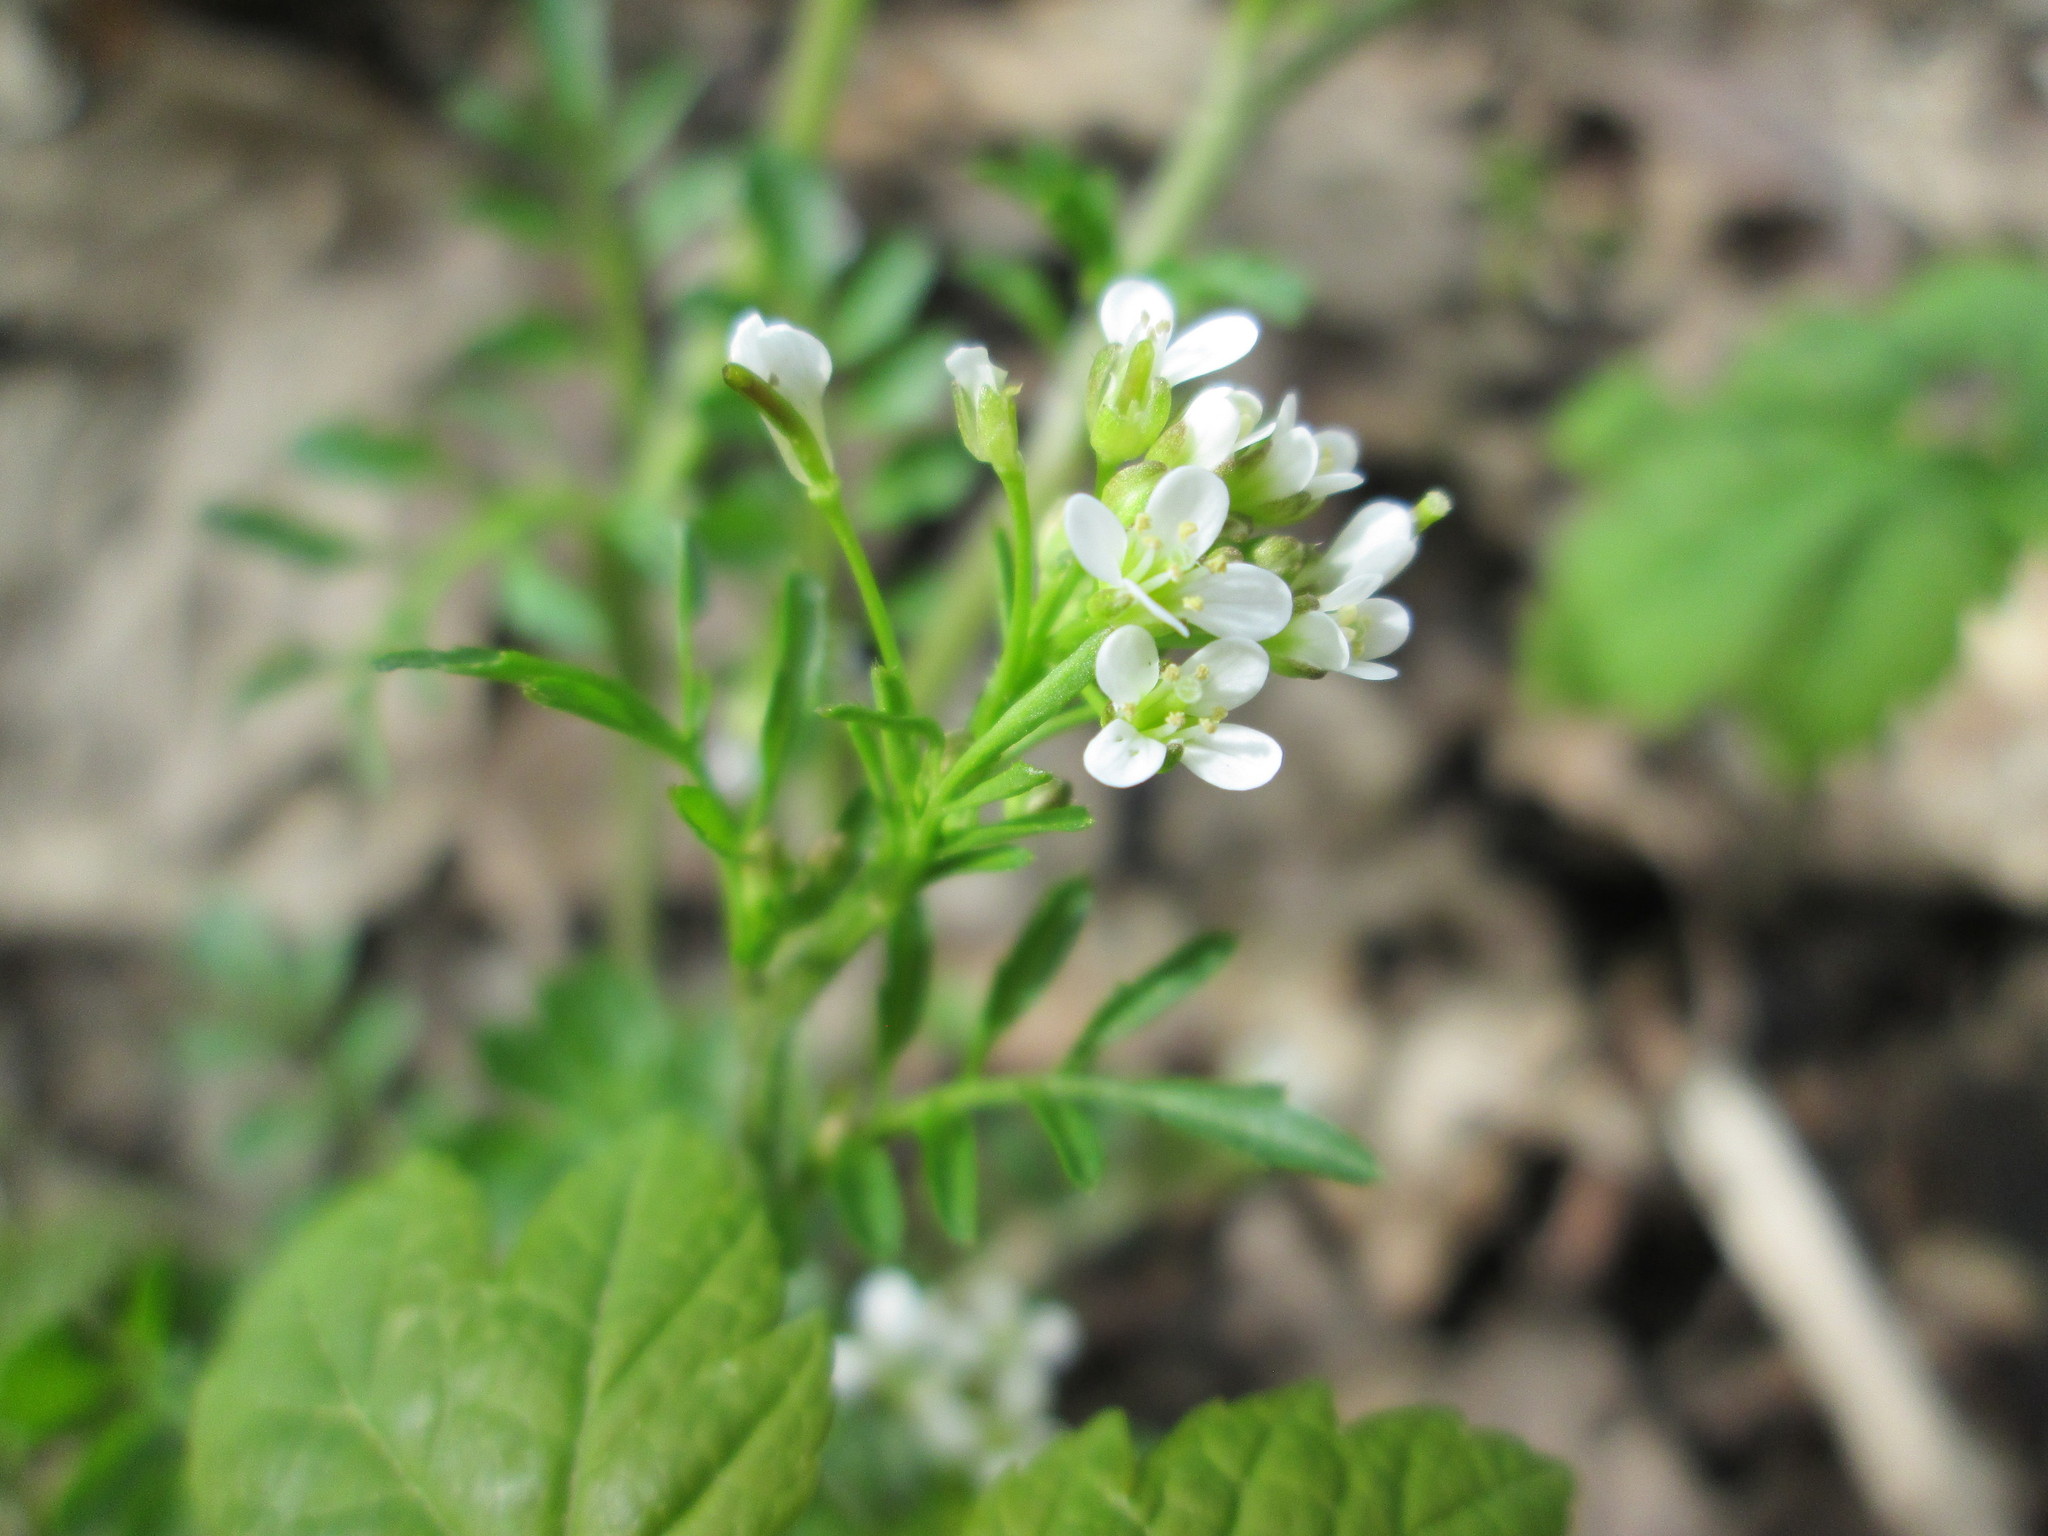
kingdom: Plantae
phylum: Tracheophyta
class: Magnoliopsida
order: Brassicales
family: Brassicaceae
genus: Cardamine
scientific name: Cardamine flexuosa
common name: Woodland bittercress
